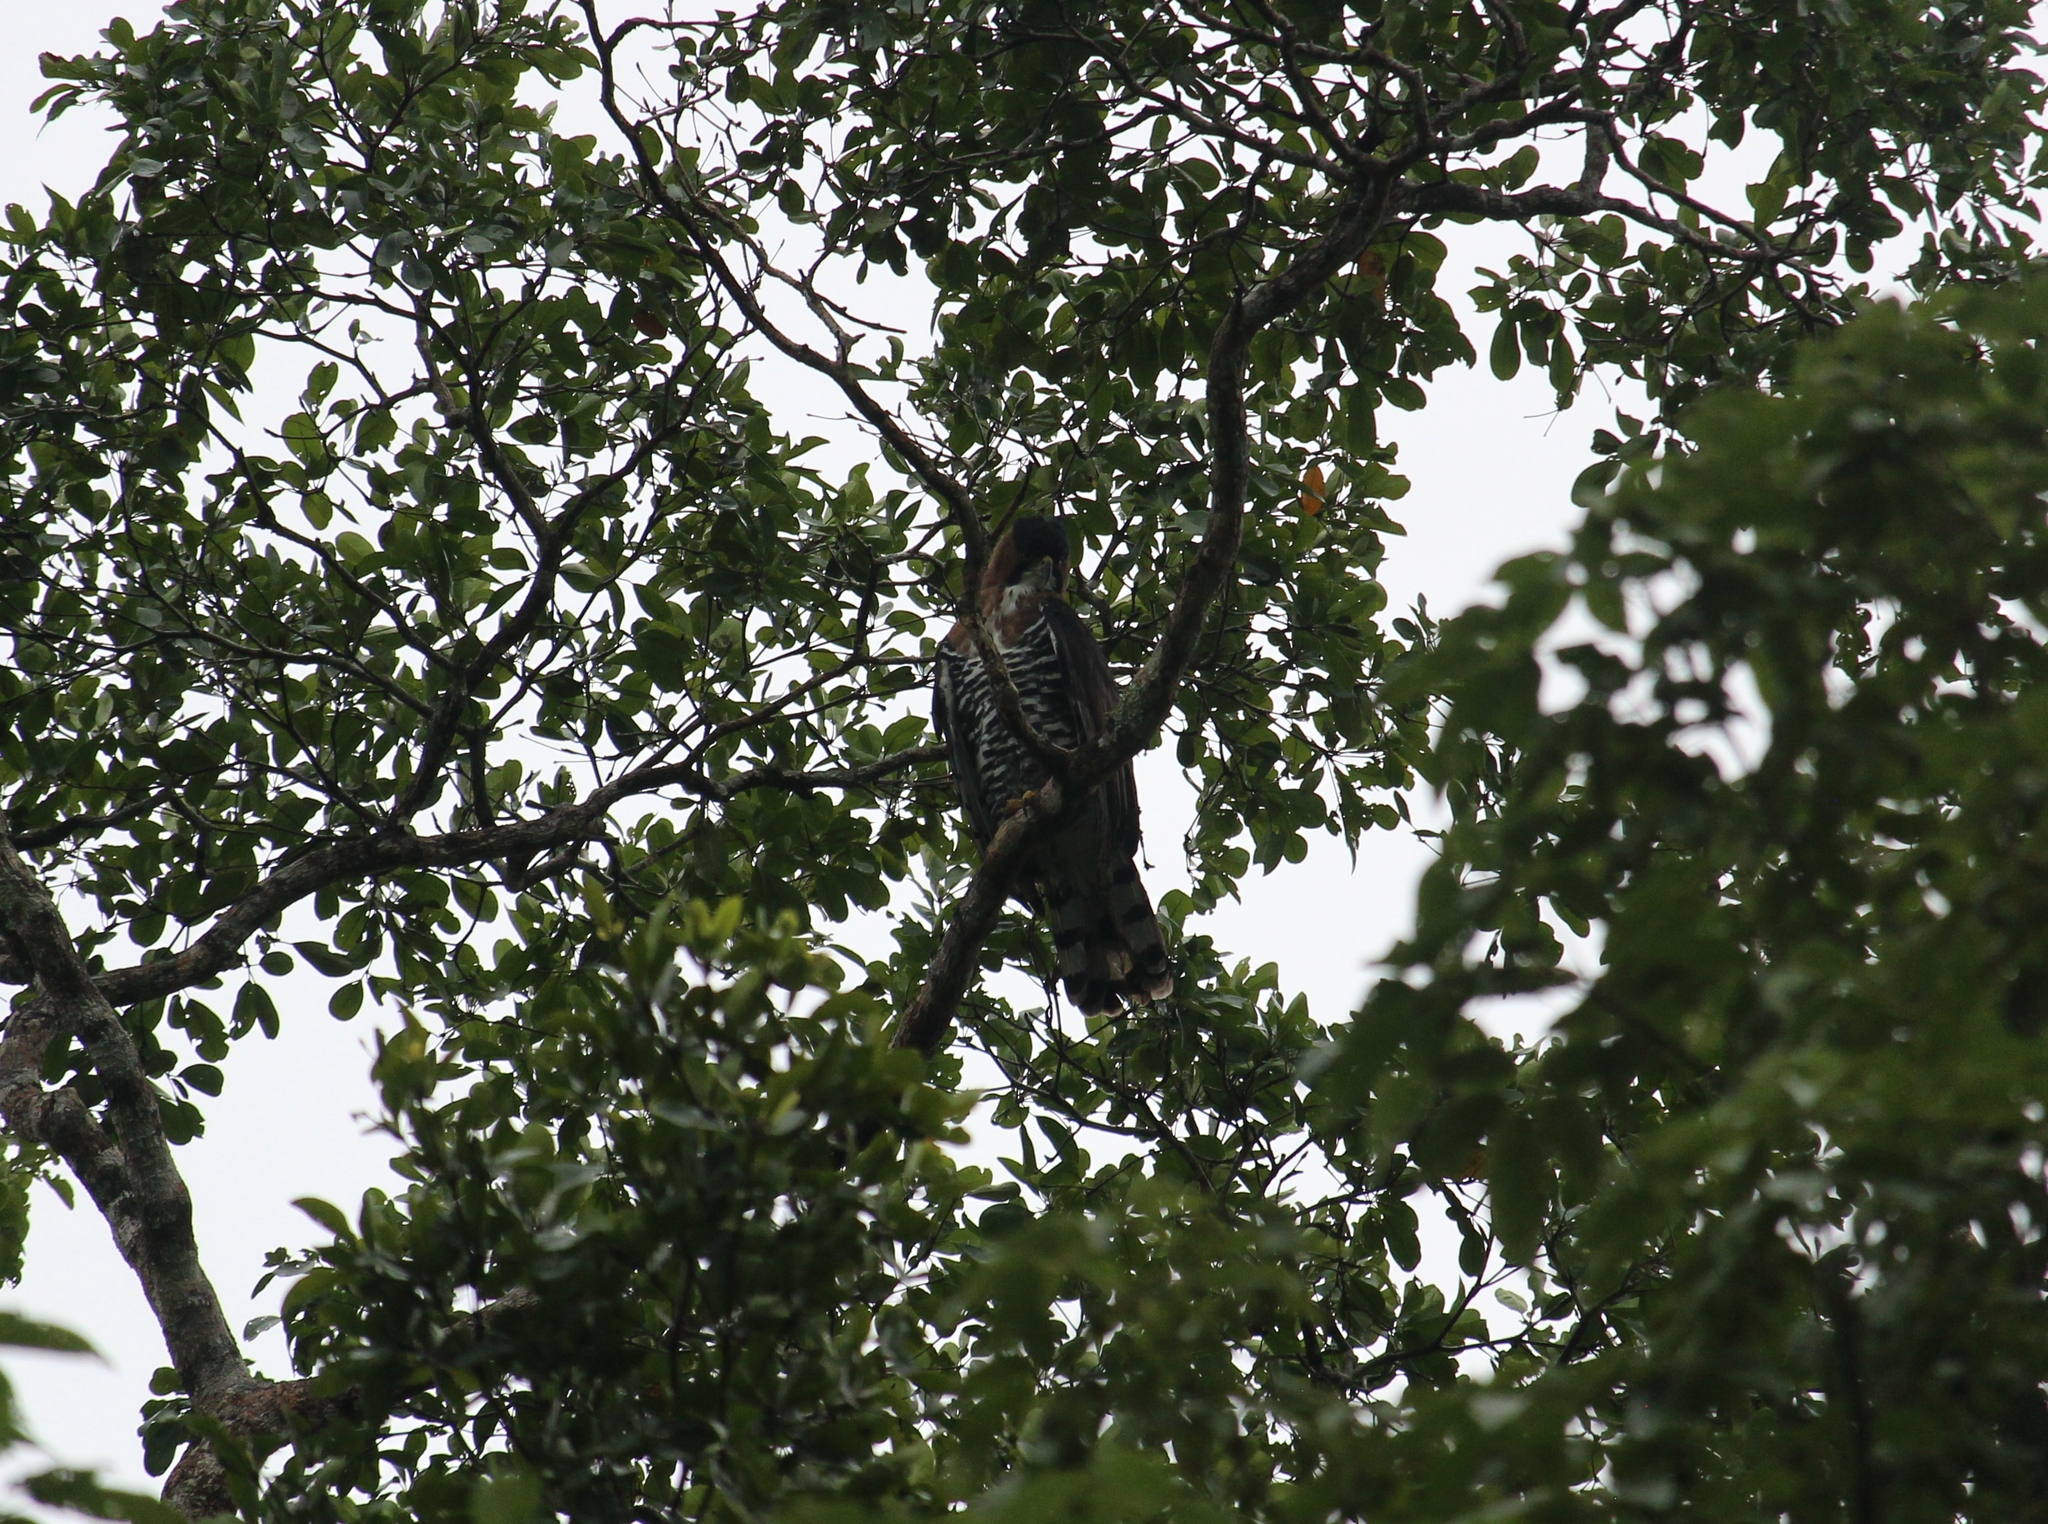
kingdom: Animalia
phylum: Chordata
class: Aves
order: Accipitriformes
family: Accipitridae
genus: Spizaetus
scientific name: Spizaetus ornatus
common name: Ornate hawk-eagle
